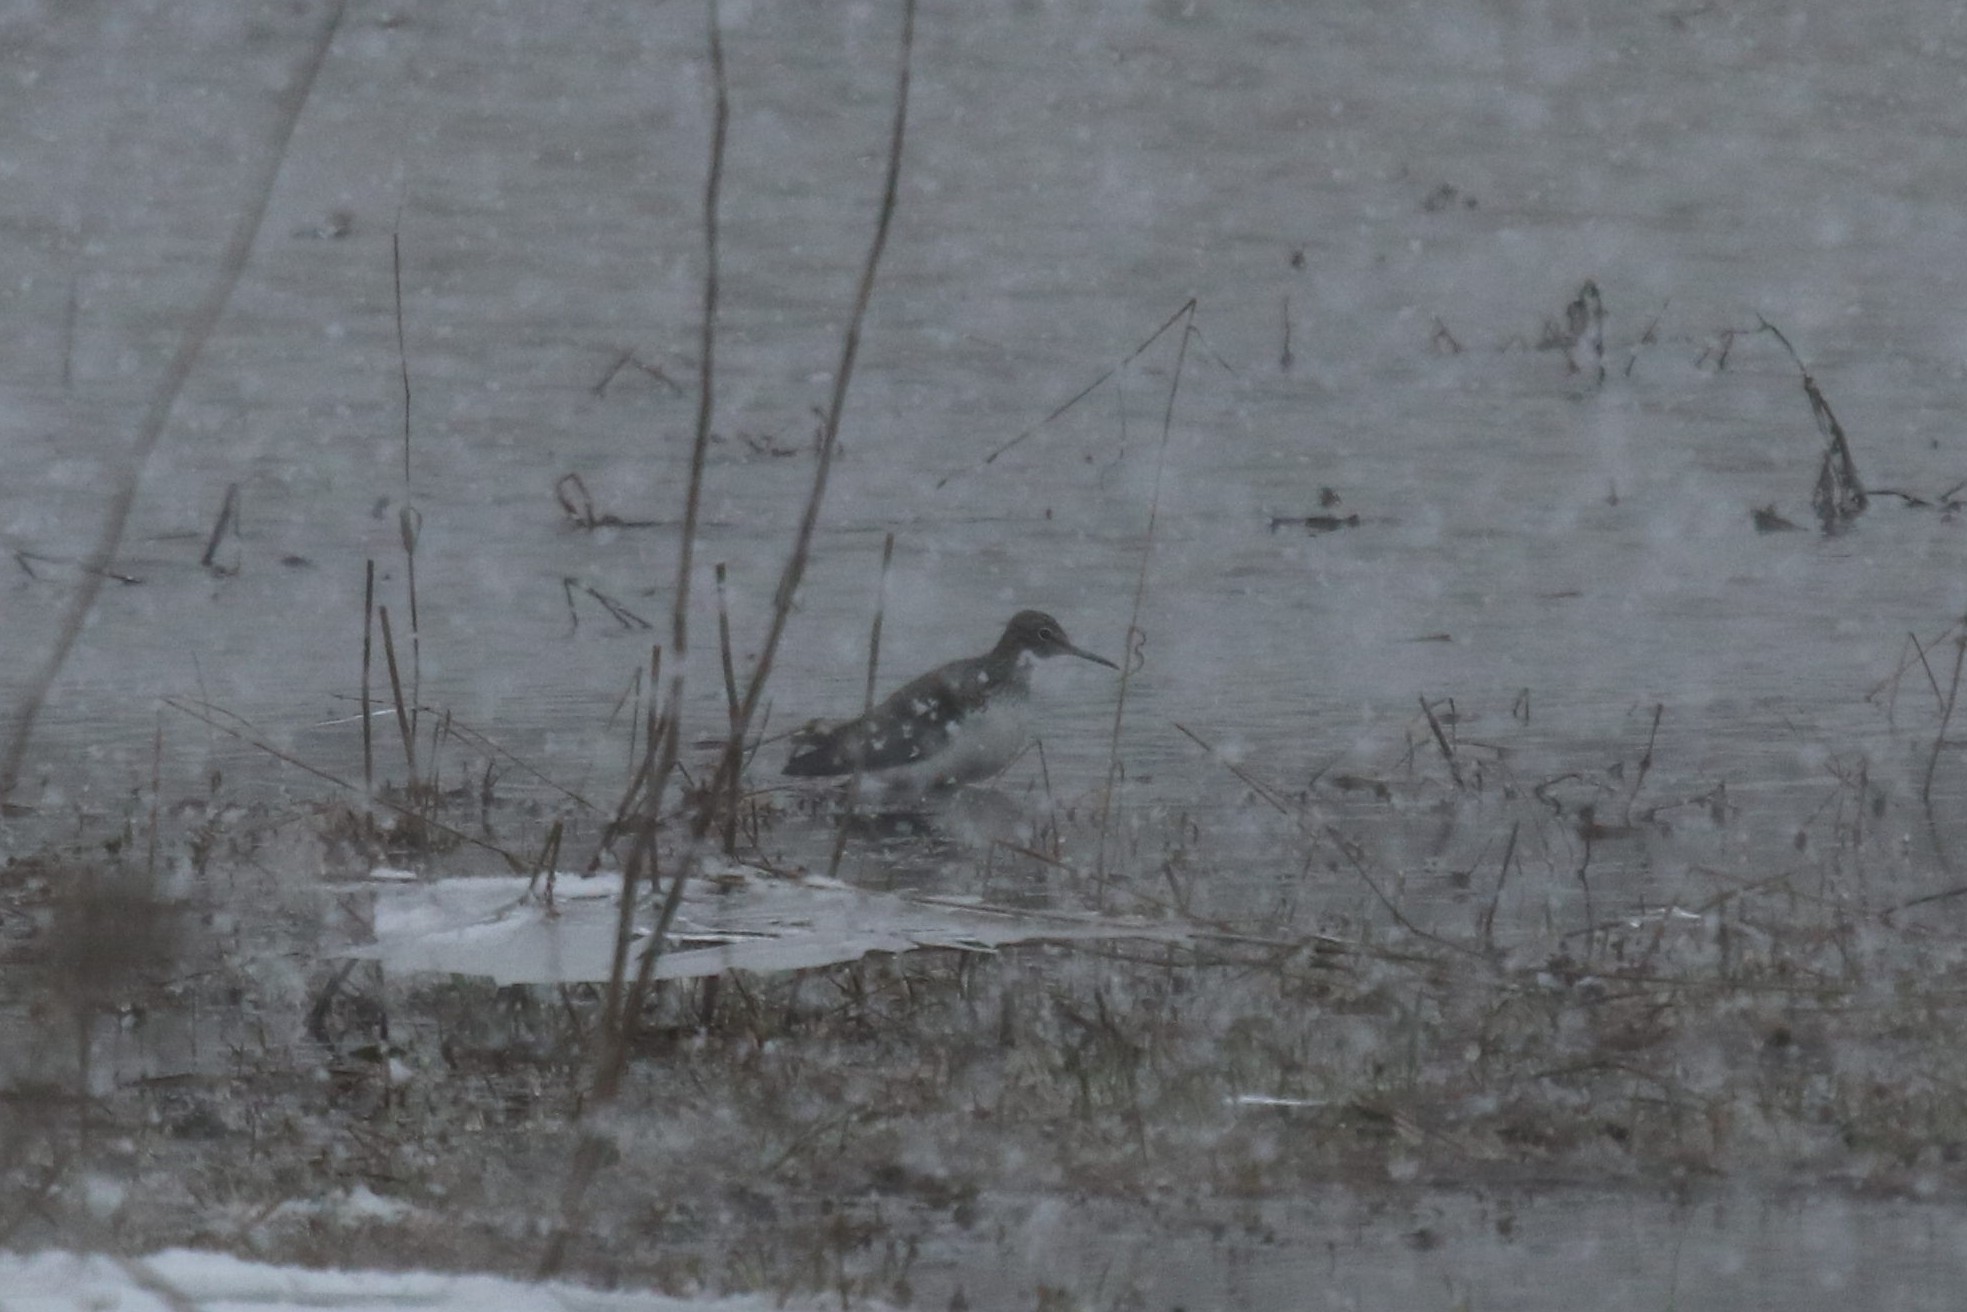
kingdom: Animalia
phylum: Chordata
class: Aves
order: Charadriiformes
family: Scolopacidae
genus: Tringa
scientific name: Tringa ochropus
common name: Green sandpiper
